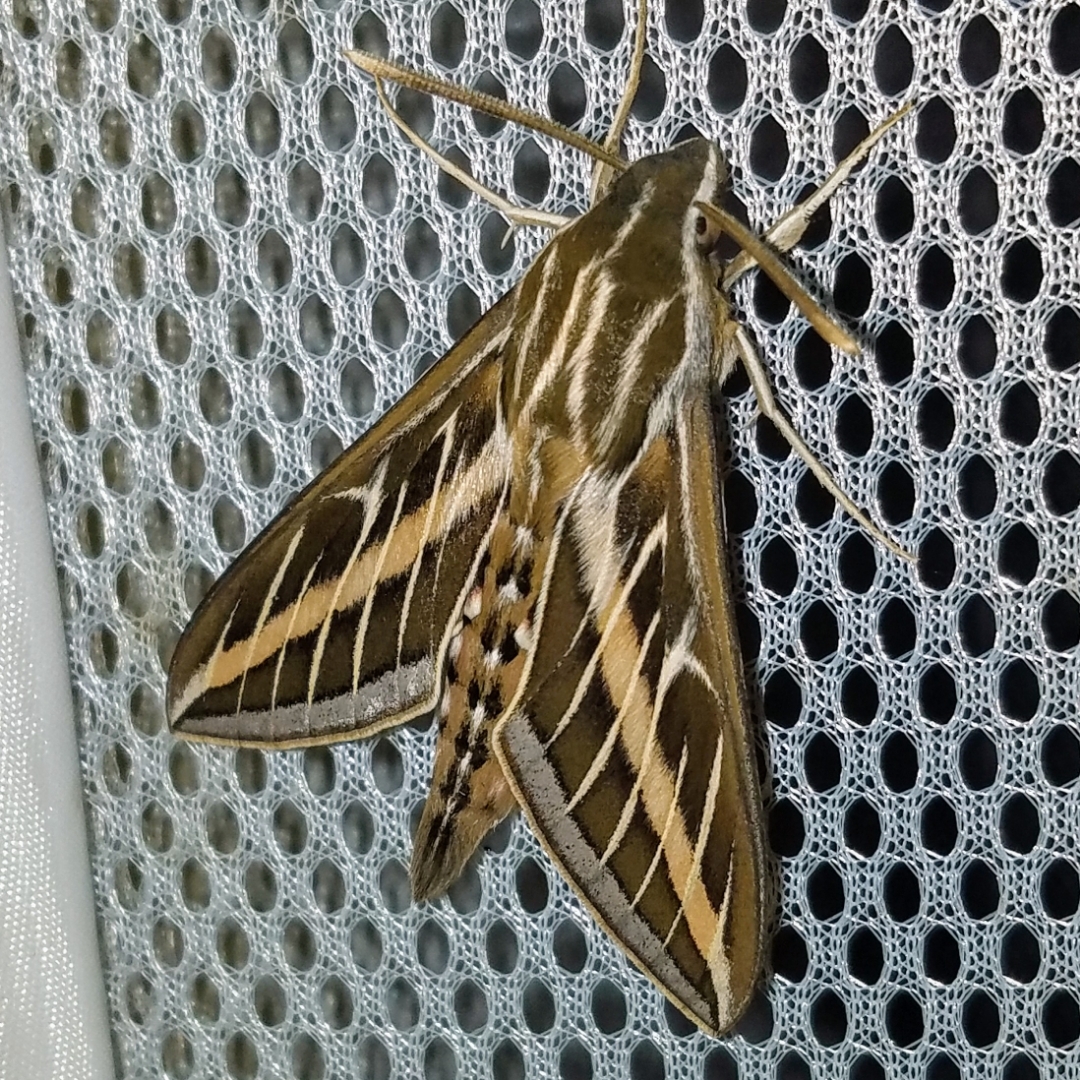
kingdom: Animalia
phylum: Arthropoda
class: Insecta
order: Lepidoptera
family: Sphingidae
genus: Hyles
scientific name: Hyles lineata
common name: White-lined sphinx
